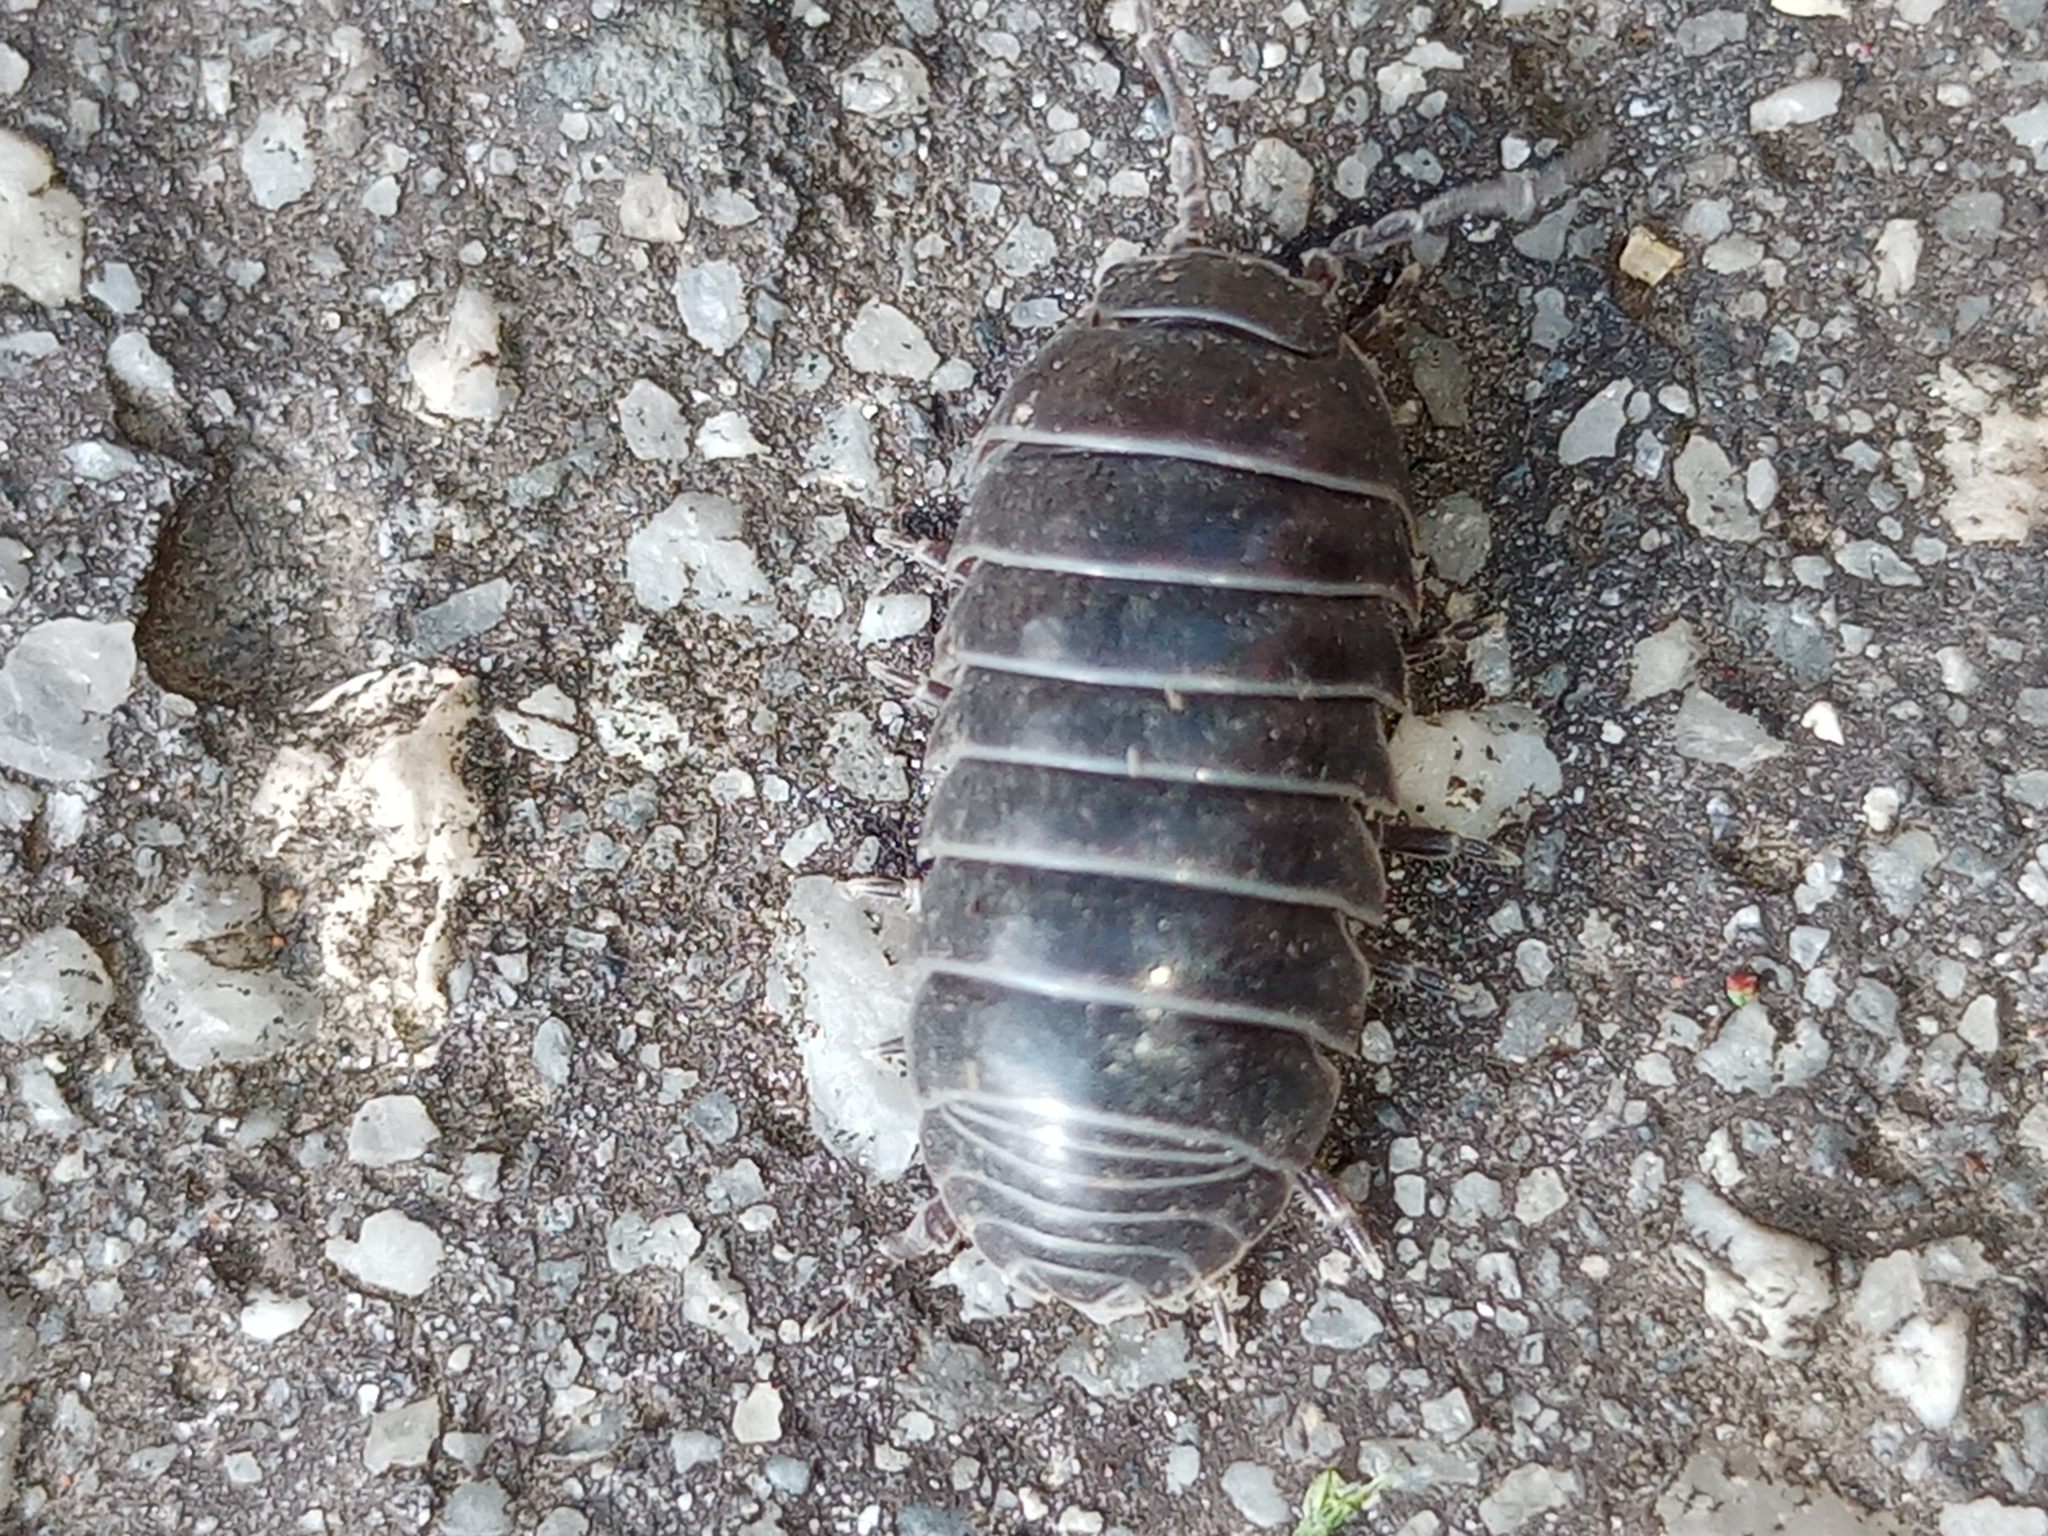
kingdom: Animalia
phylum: Arthropoda
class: Malacostraca
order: Isopoda
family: Armadillidiidae
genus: Armadillidium
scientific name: Armadillidium vulgare
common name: Common pill woodlouse
